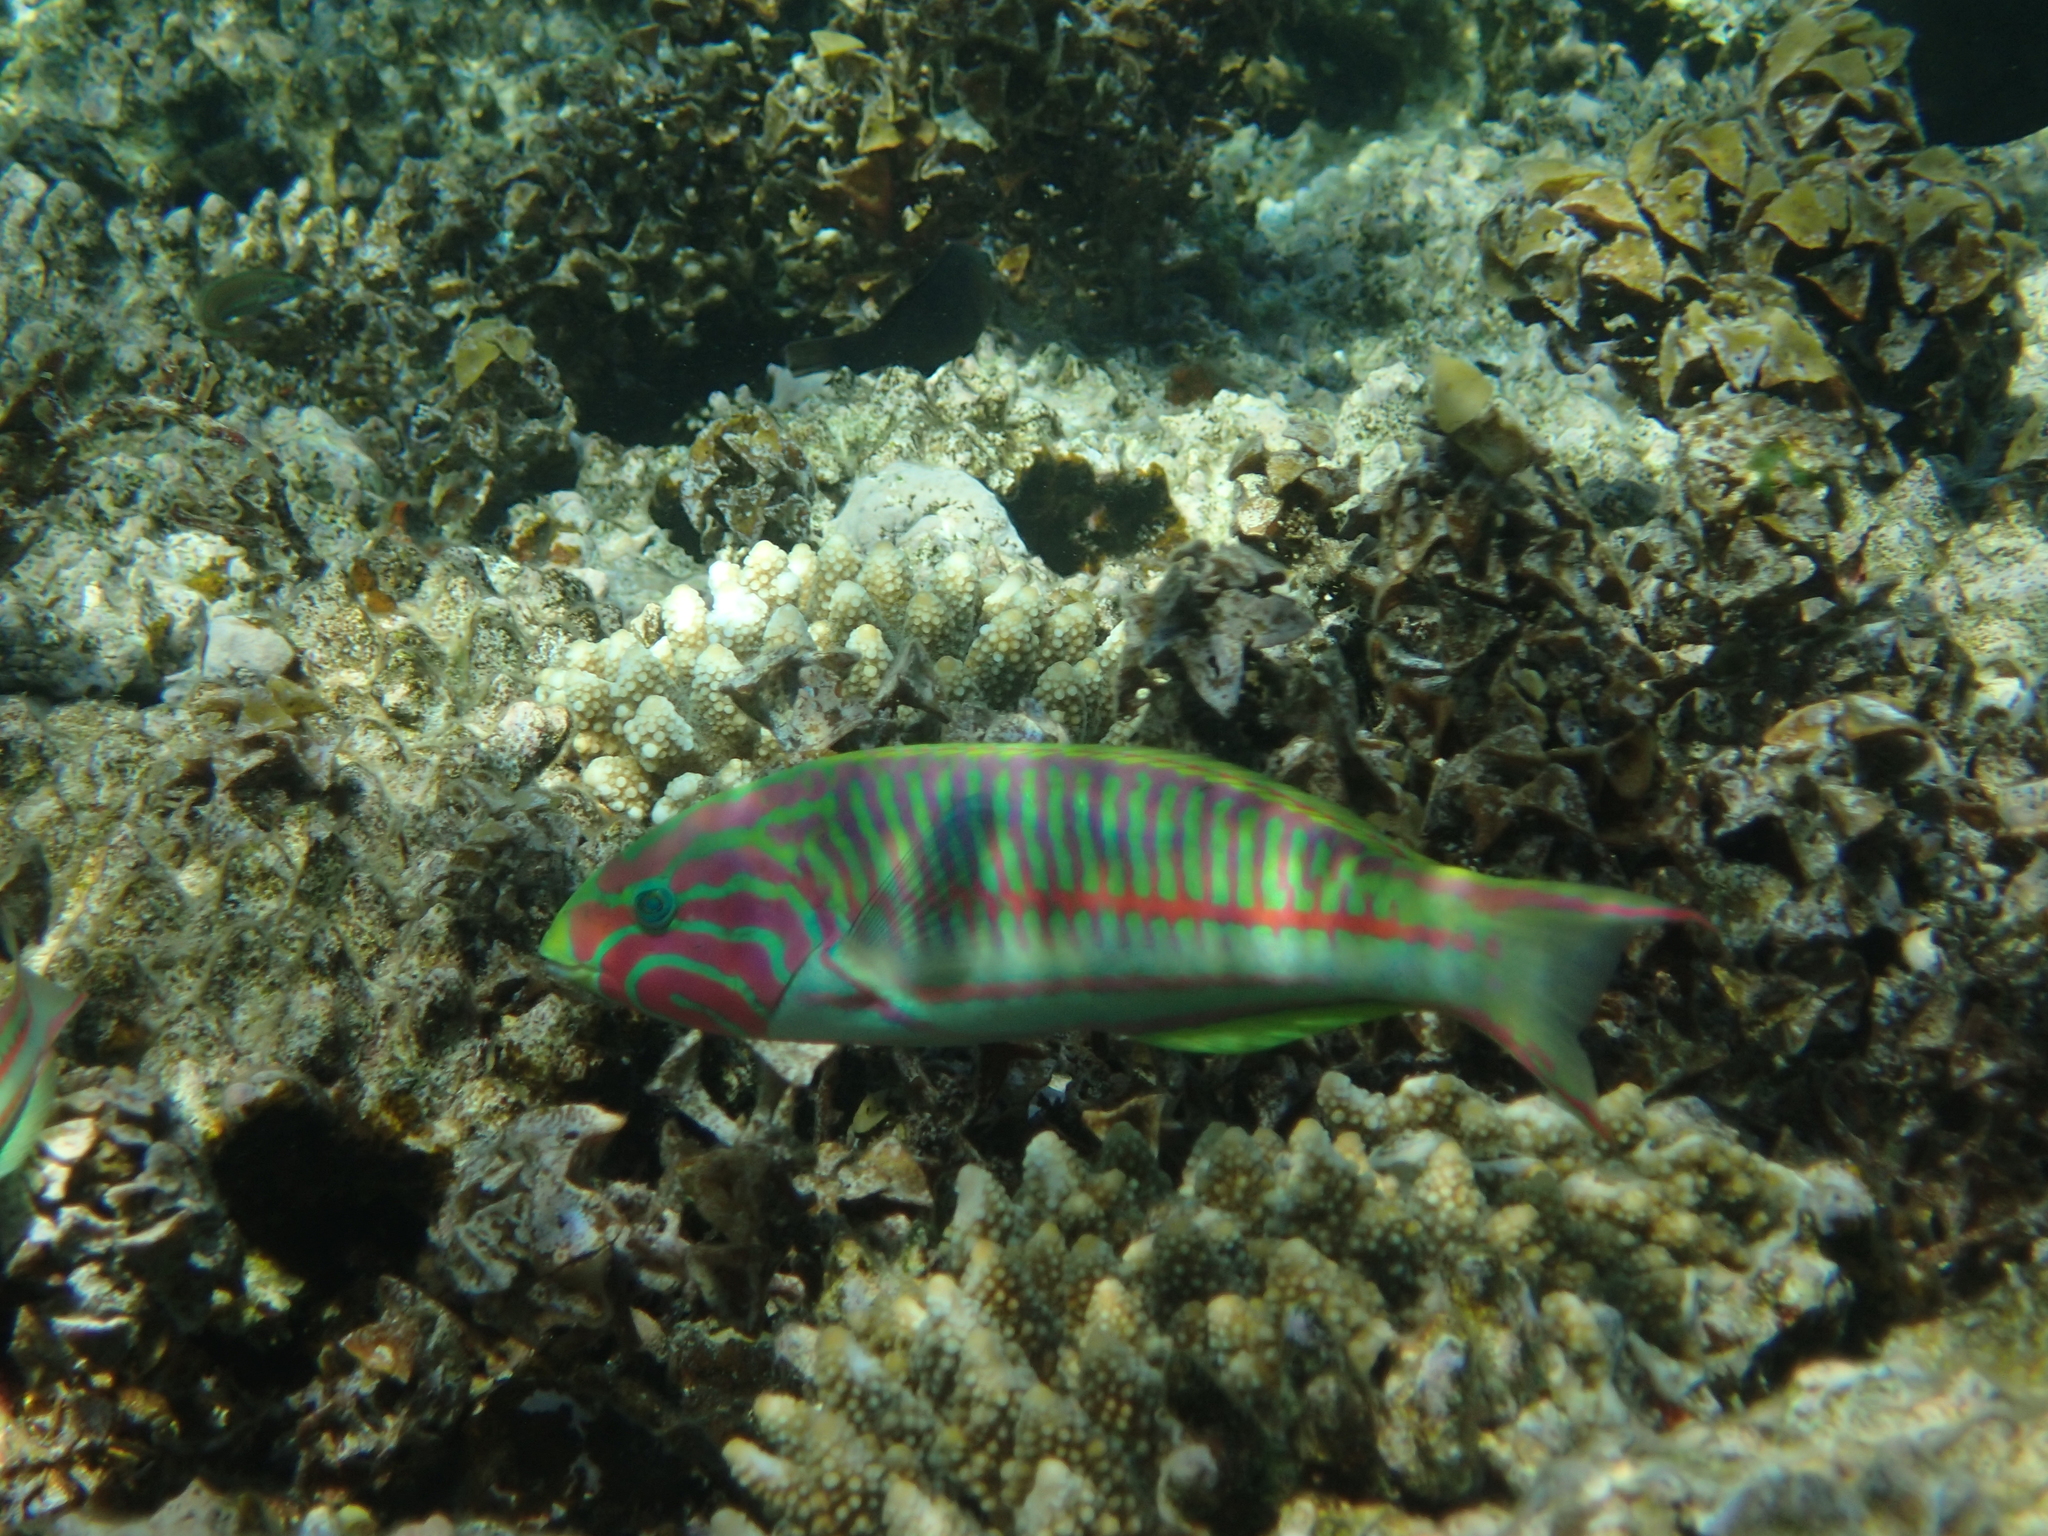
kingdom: Animalia
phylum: Chordata
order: Perciformes
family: Labridae
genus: Thalassoma
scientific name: Thalassoma rueppellii
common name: Klunzinger's wrasse
